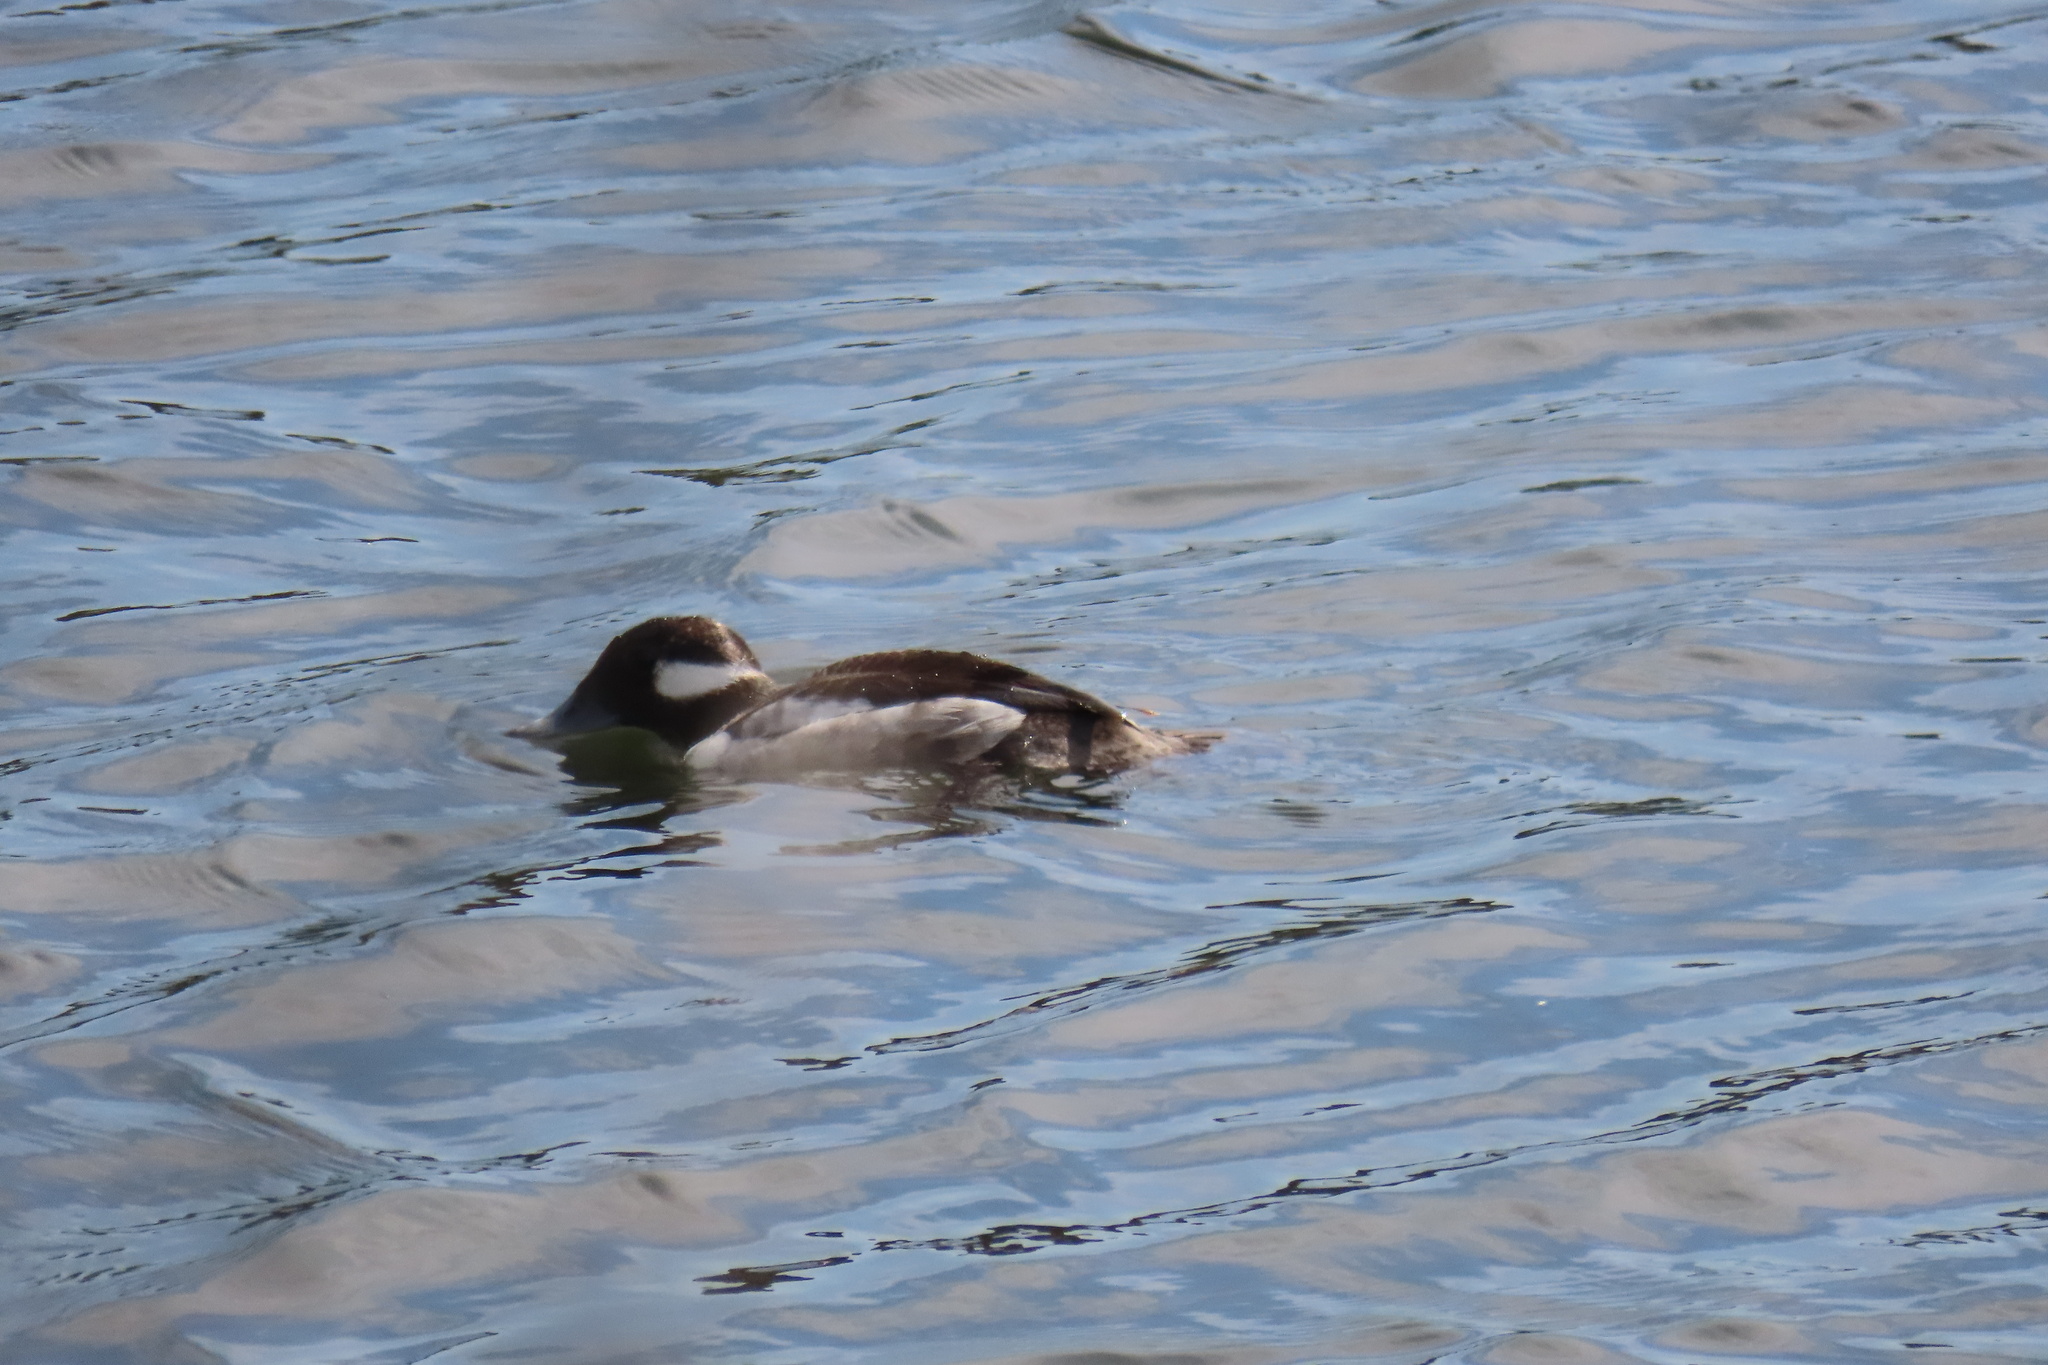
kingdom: Animalia
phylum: Chordata
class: Aves
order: Anseriformes
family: Anatidae
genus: Bucephala
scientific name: Bucephala albeola
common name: Bufflehead
